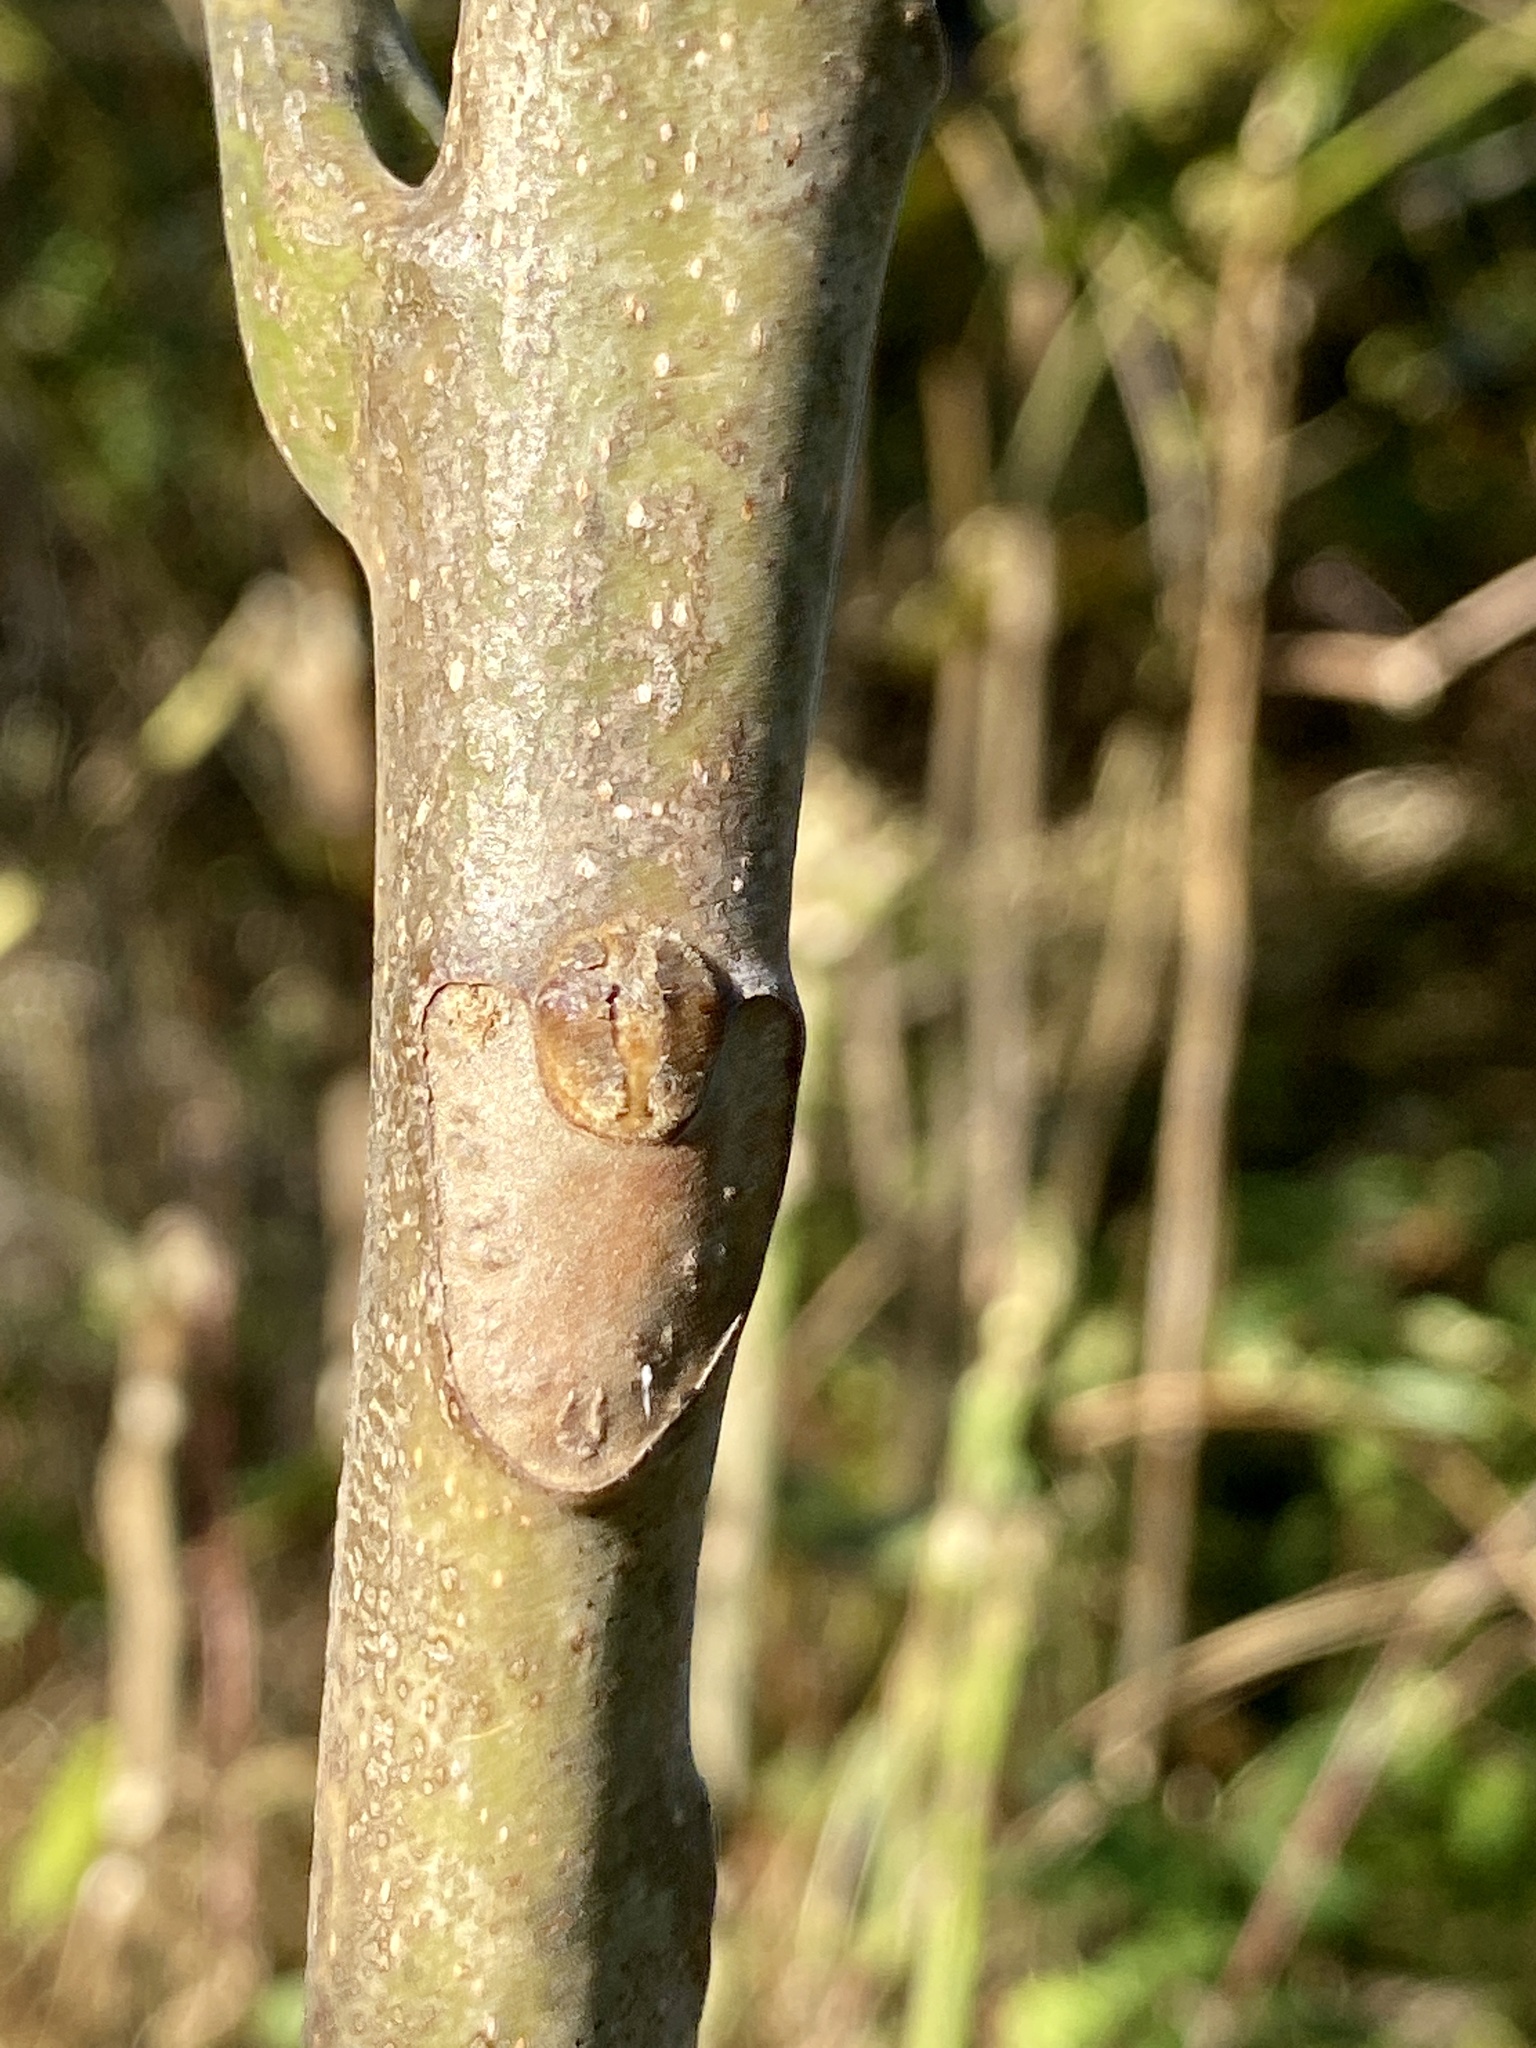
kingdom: Plantae
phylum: Tracheophyta
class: Magnoliopsida
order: Sapindales
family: Simaroubaceae
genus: Ailanthus
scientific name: Ailanthus altissima
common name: Tree-of-heaven
